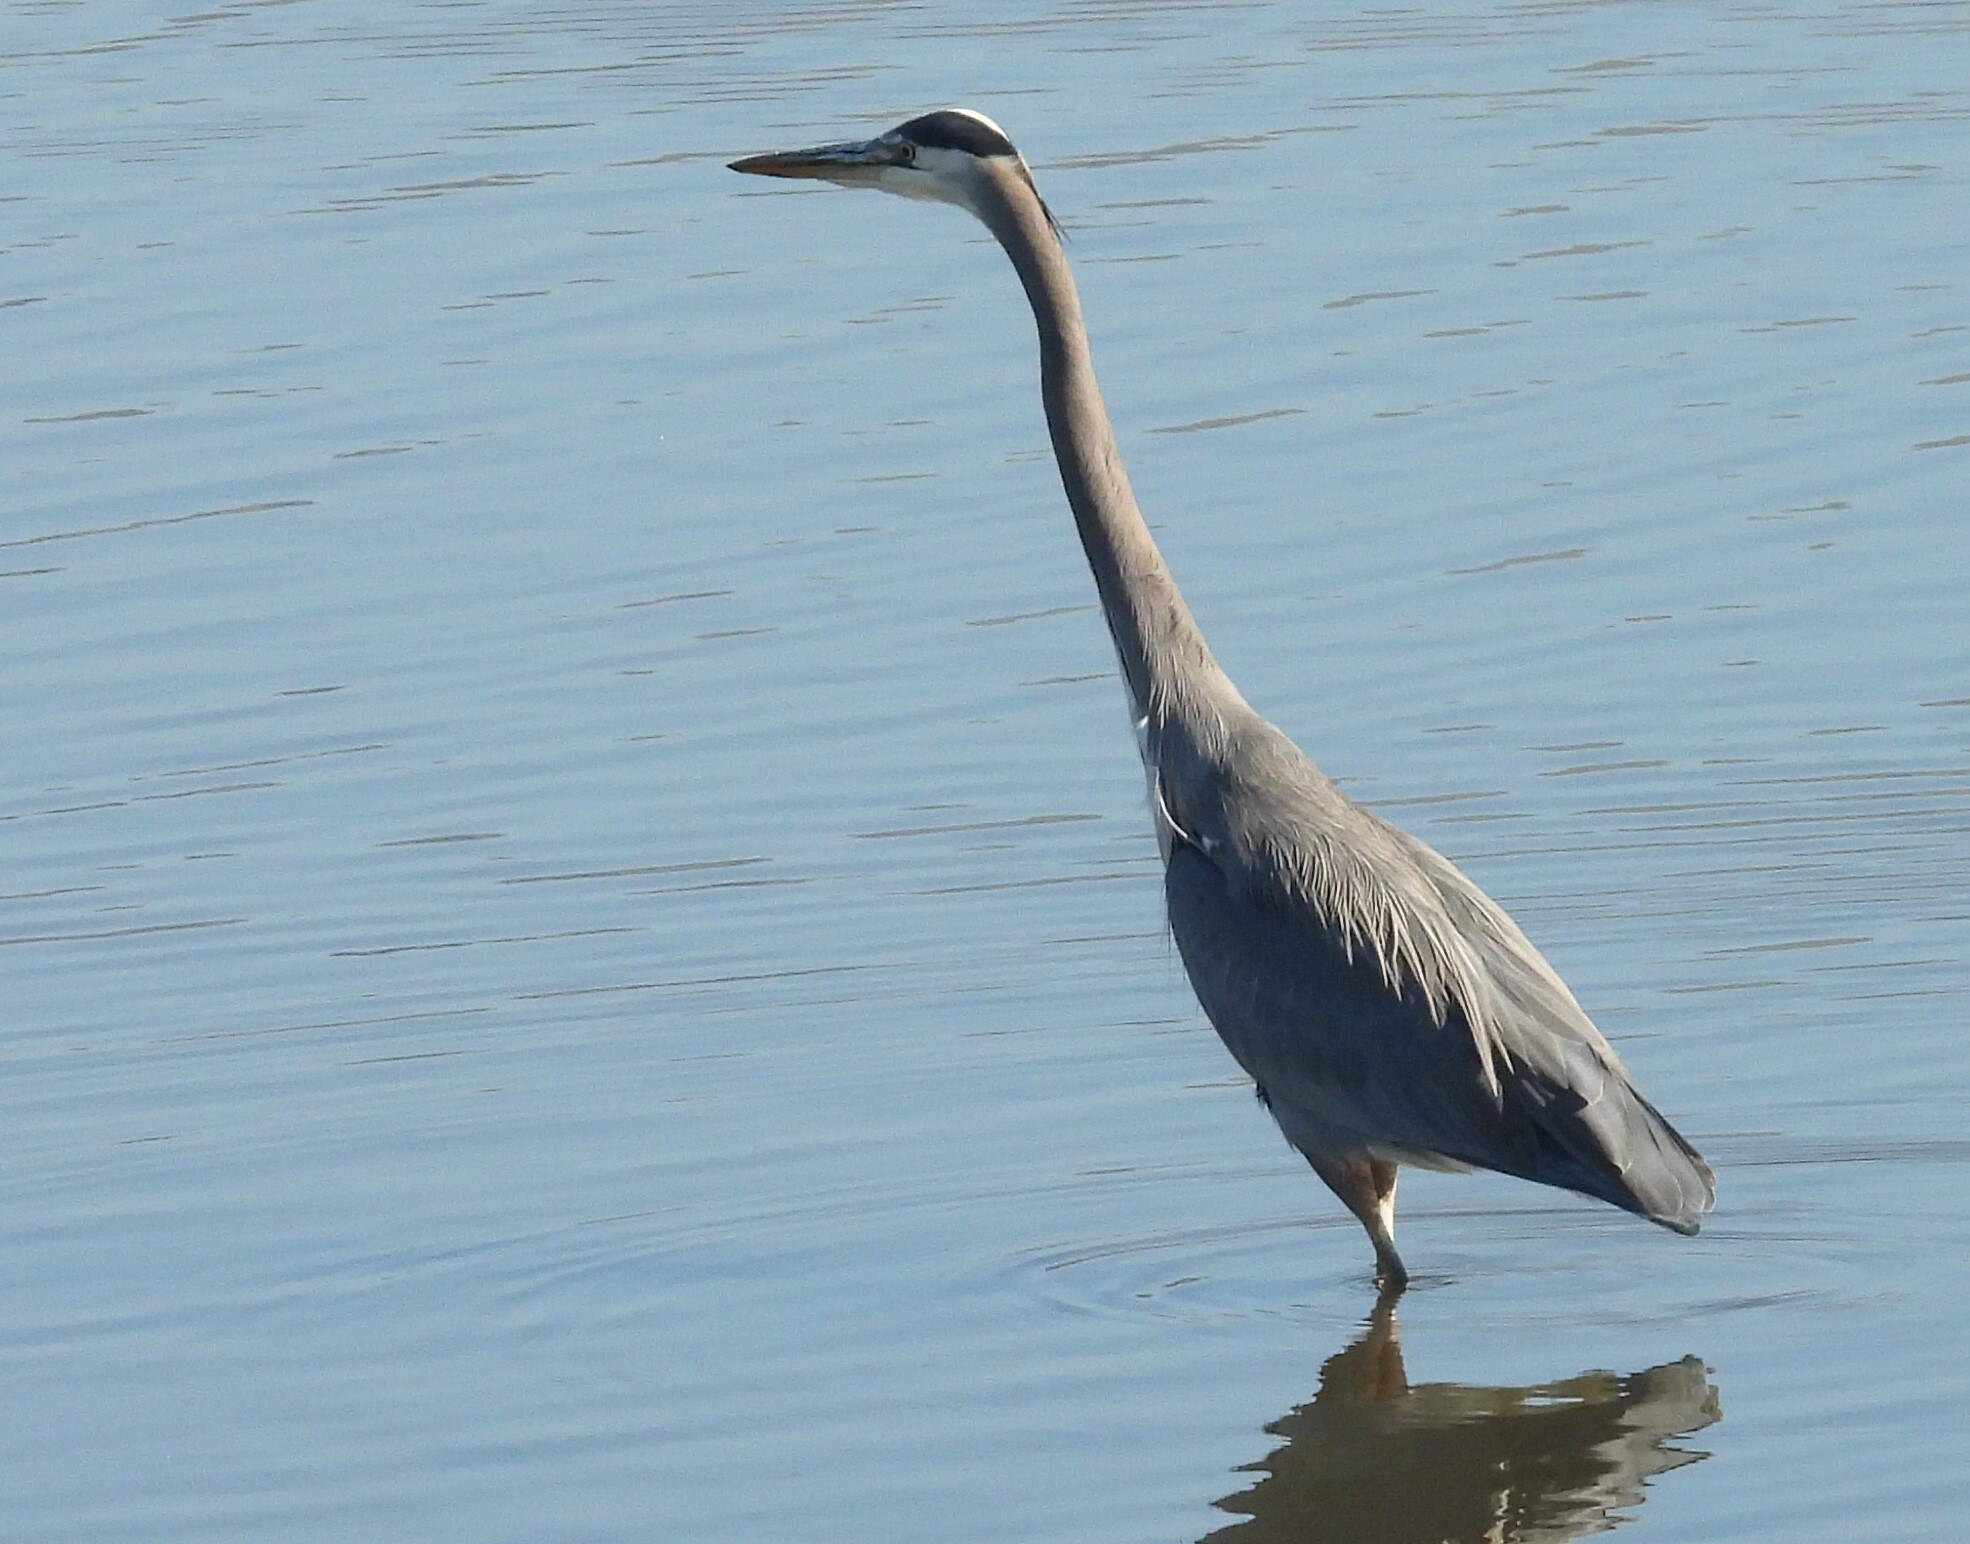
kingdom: Animalia
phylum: Chordata
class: Aves
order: Pelecaniformes
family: Ardeidae
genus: Ardea
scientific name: Ardea herodias
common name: Great blue heron
